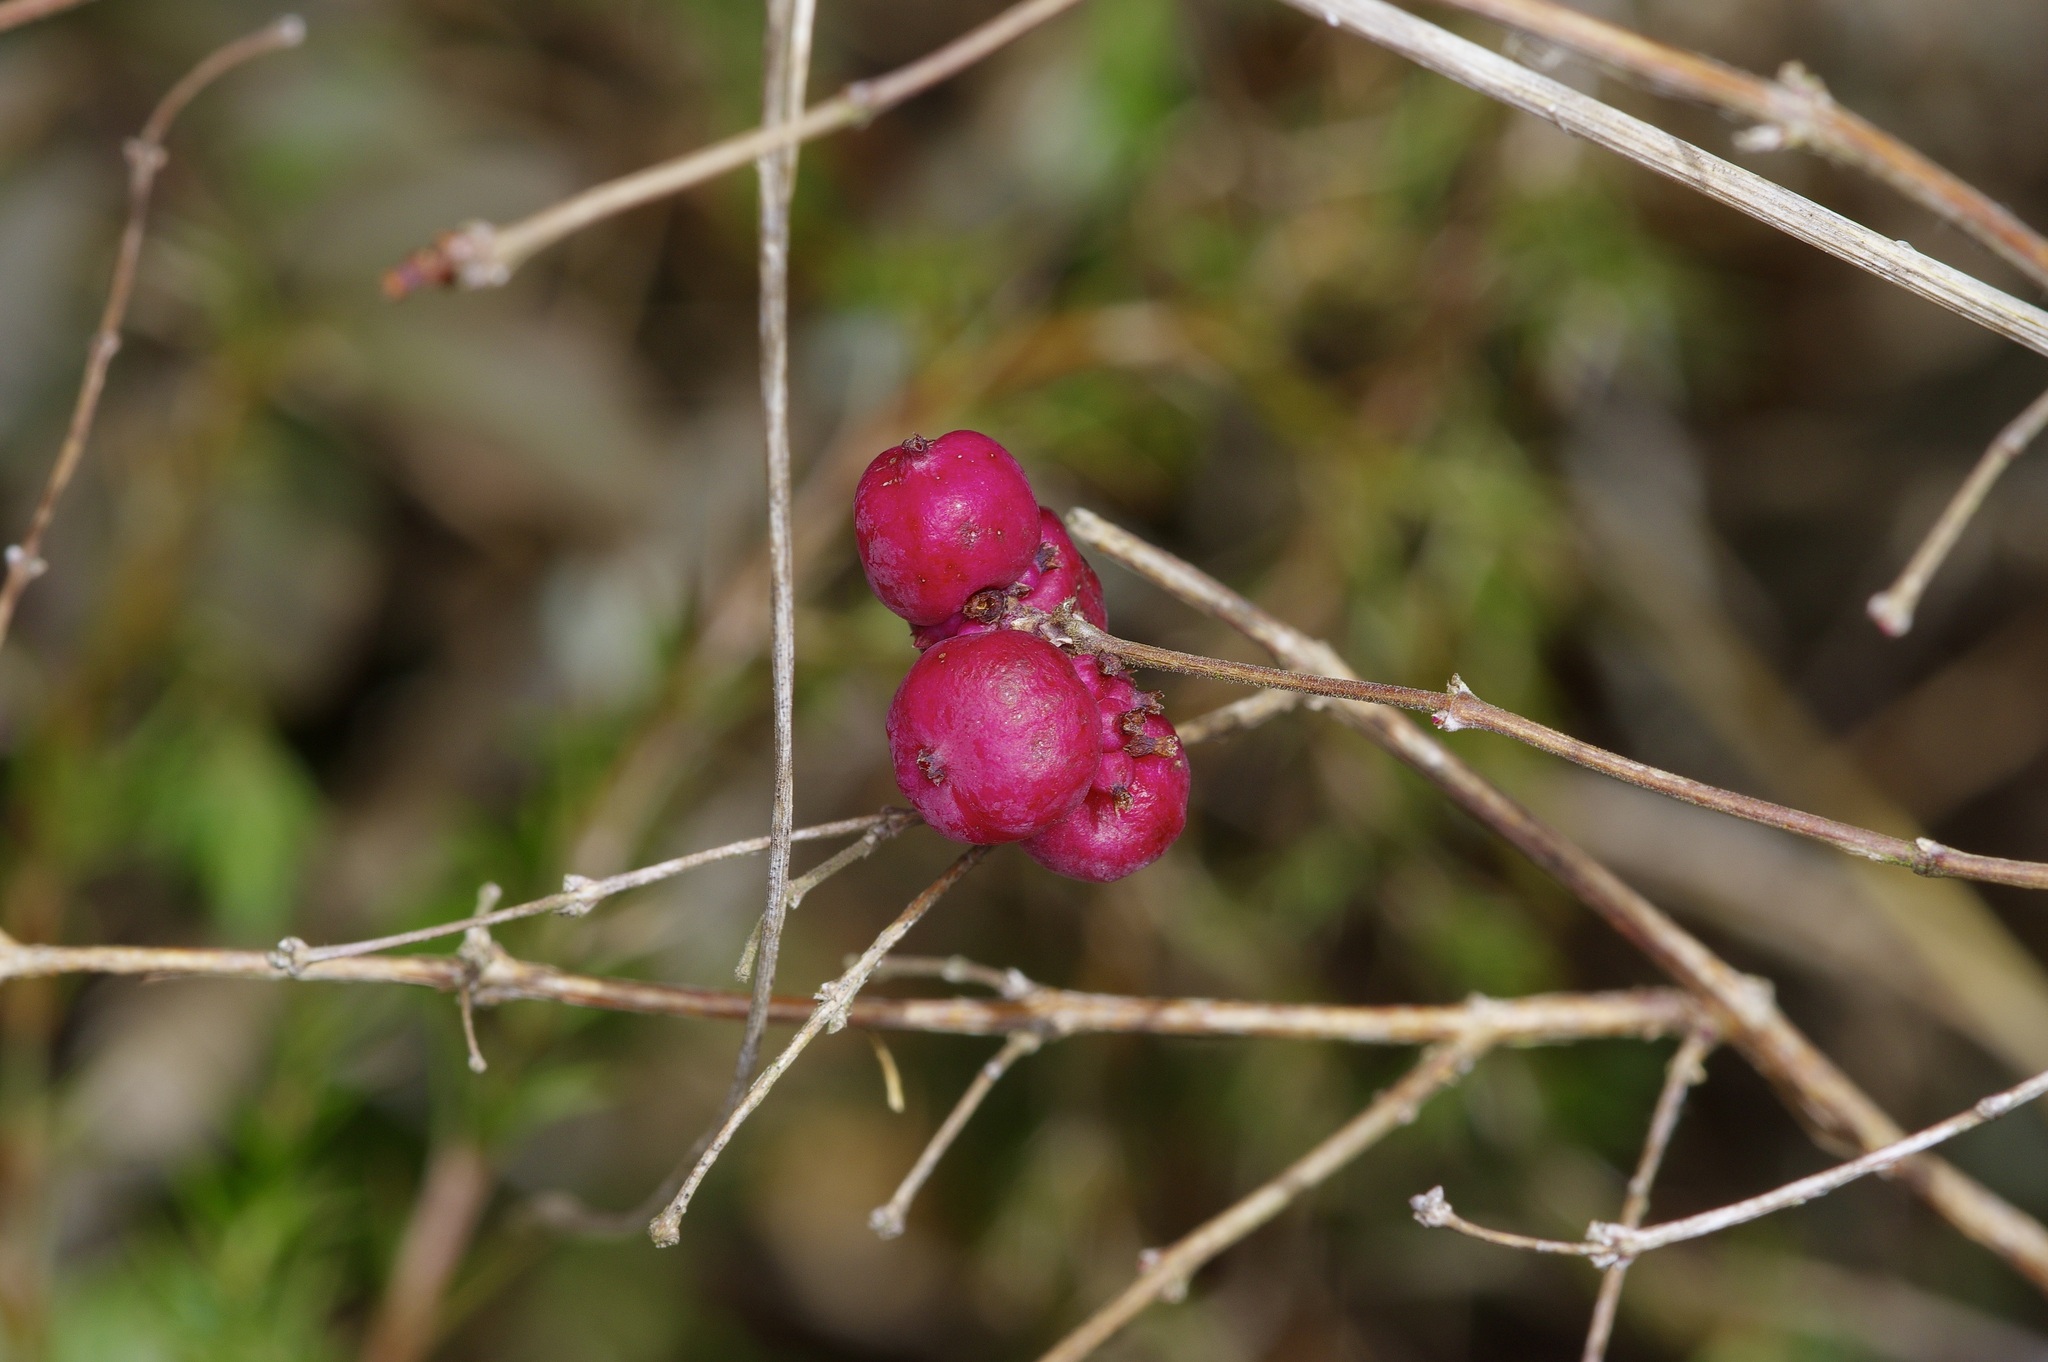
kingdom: Plantae
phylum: Tracheophyta
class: Magnoliopsida
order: Dipsacales
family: Caprifoliaceae
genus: Symphoricarpos
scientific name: Symphoricarpos orbiculatus
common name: Coralberry
